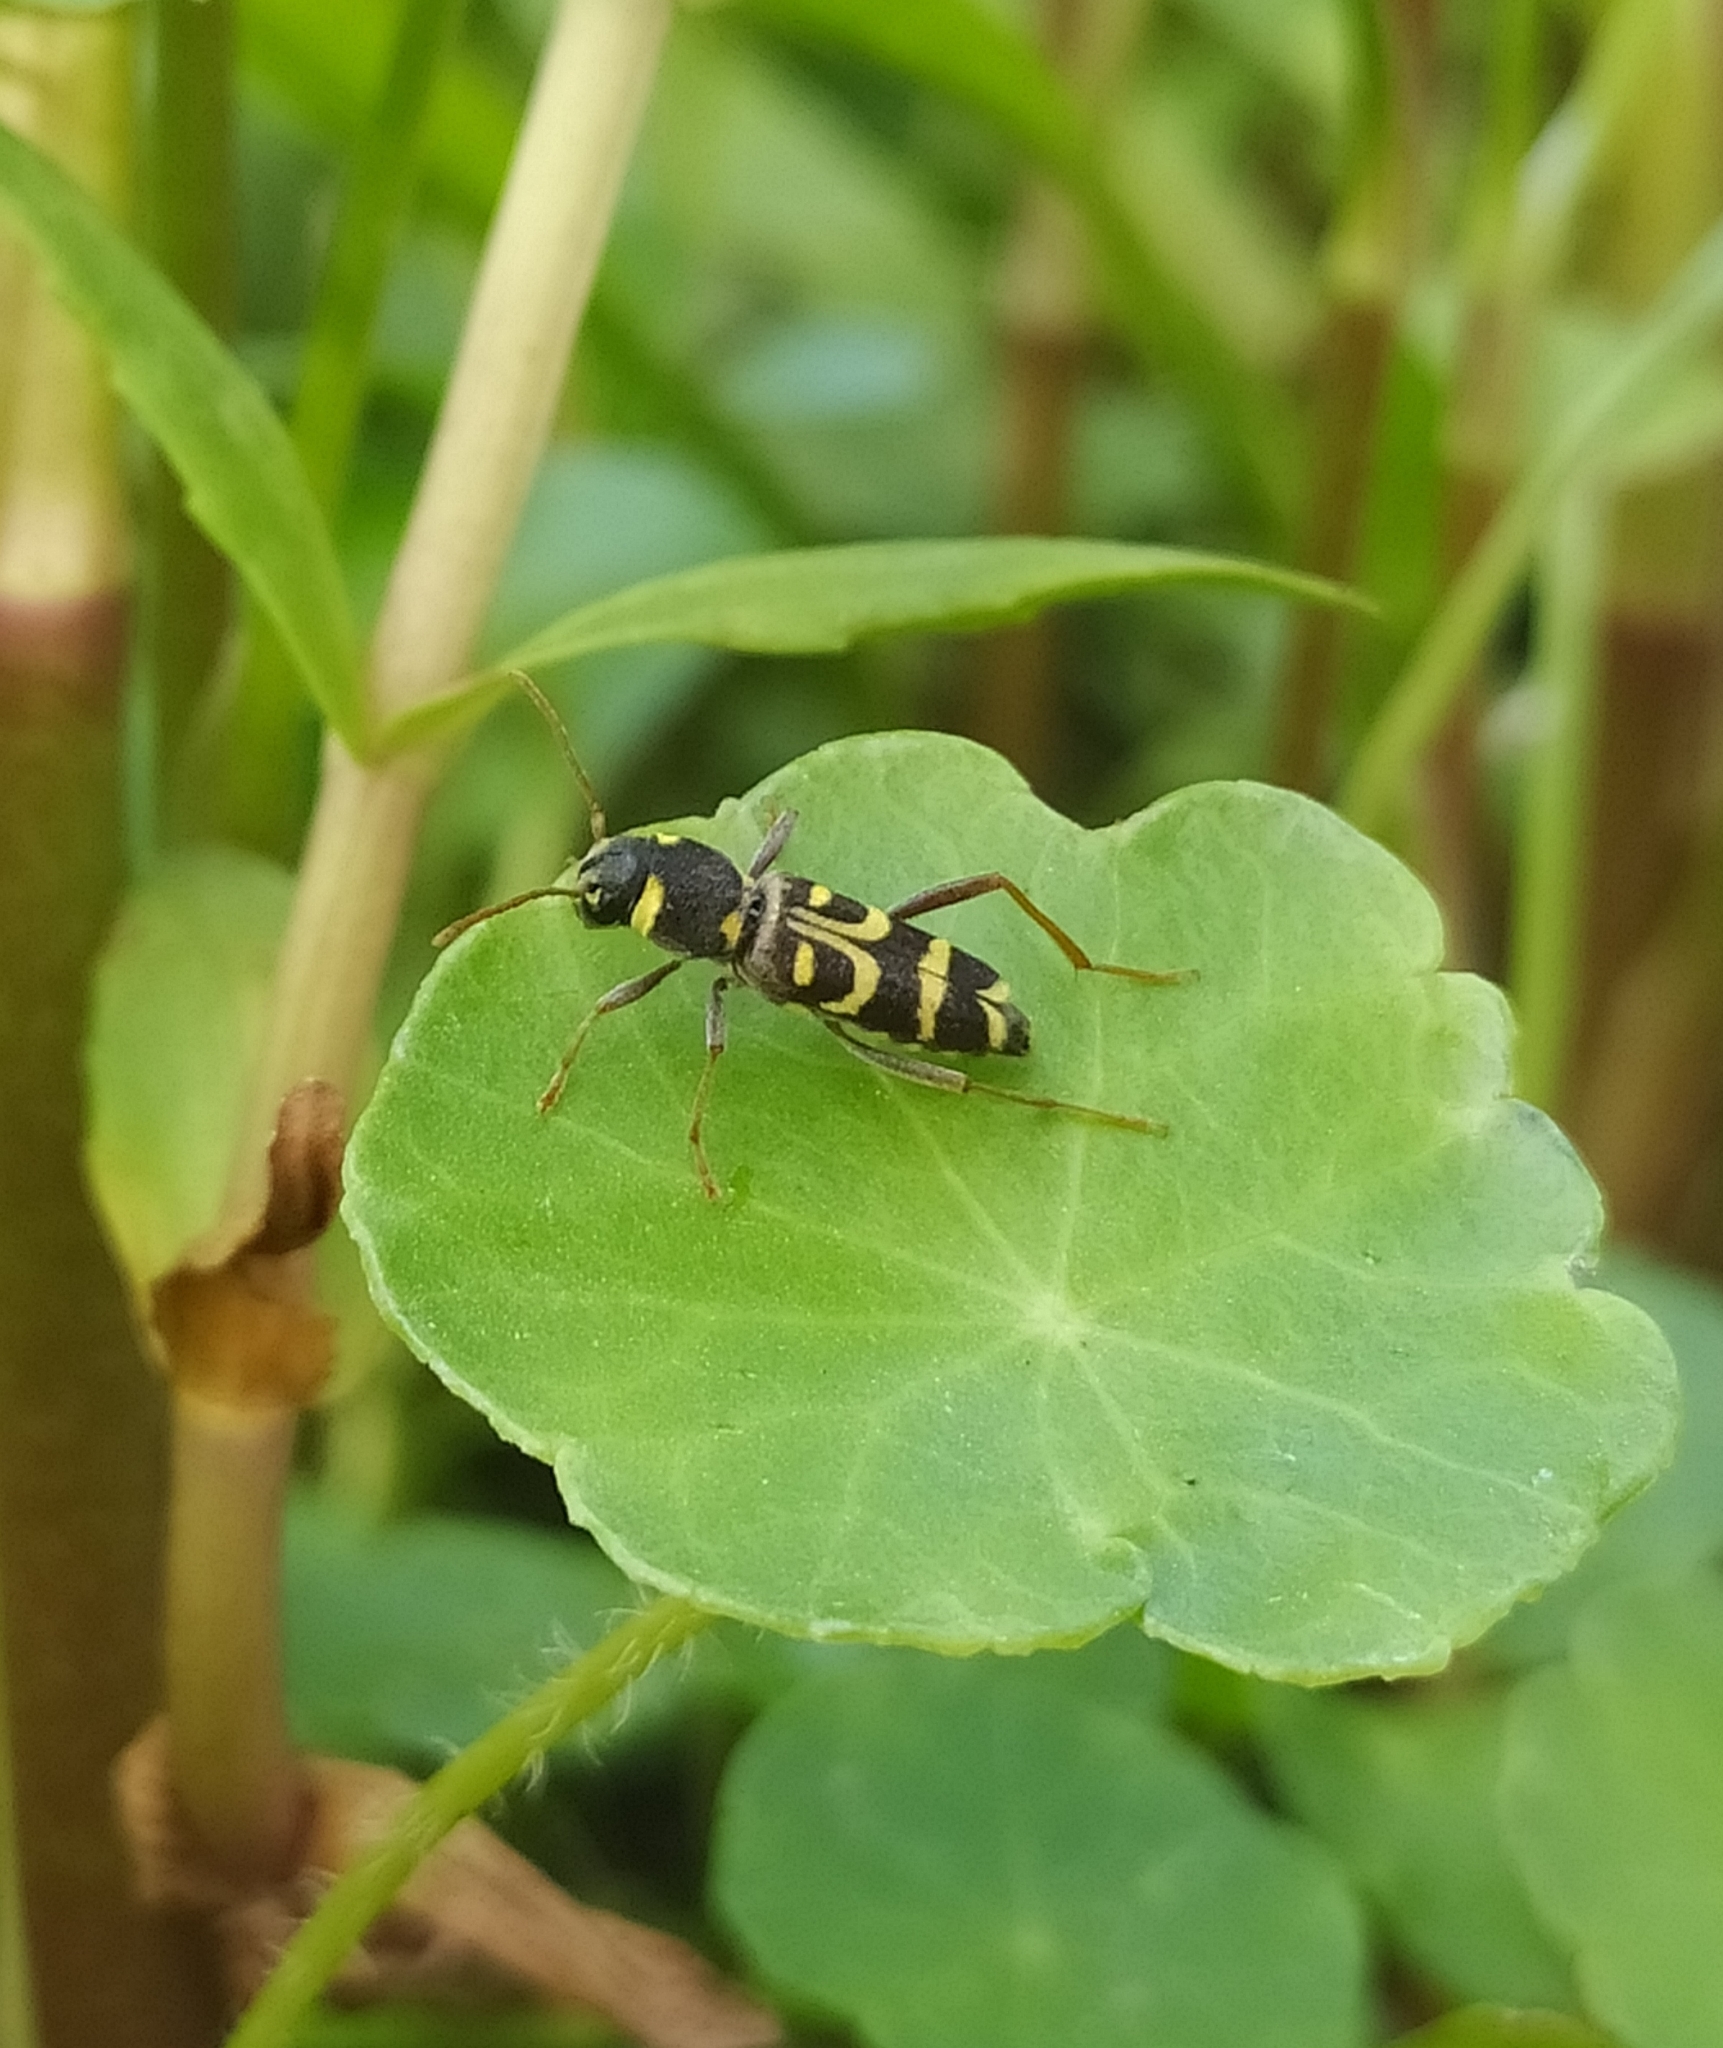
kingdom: Animalia
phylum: Arthropoda
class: Insecta
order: Coleoptera
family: Cerambycidae
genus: Xylotrechus
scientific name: Xylotrechus arvicola
